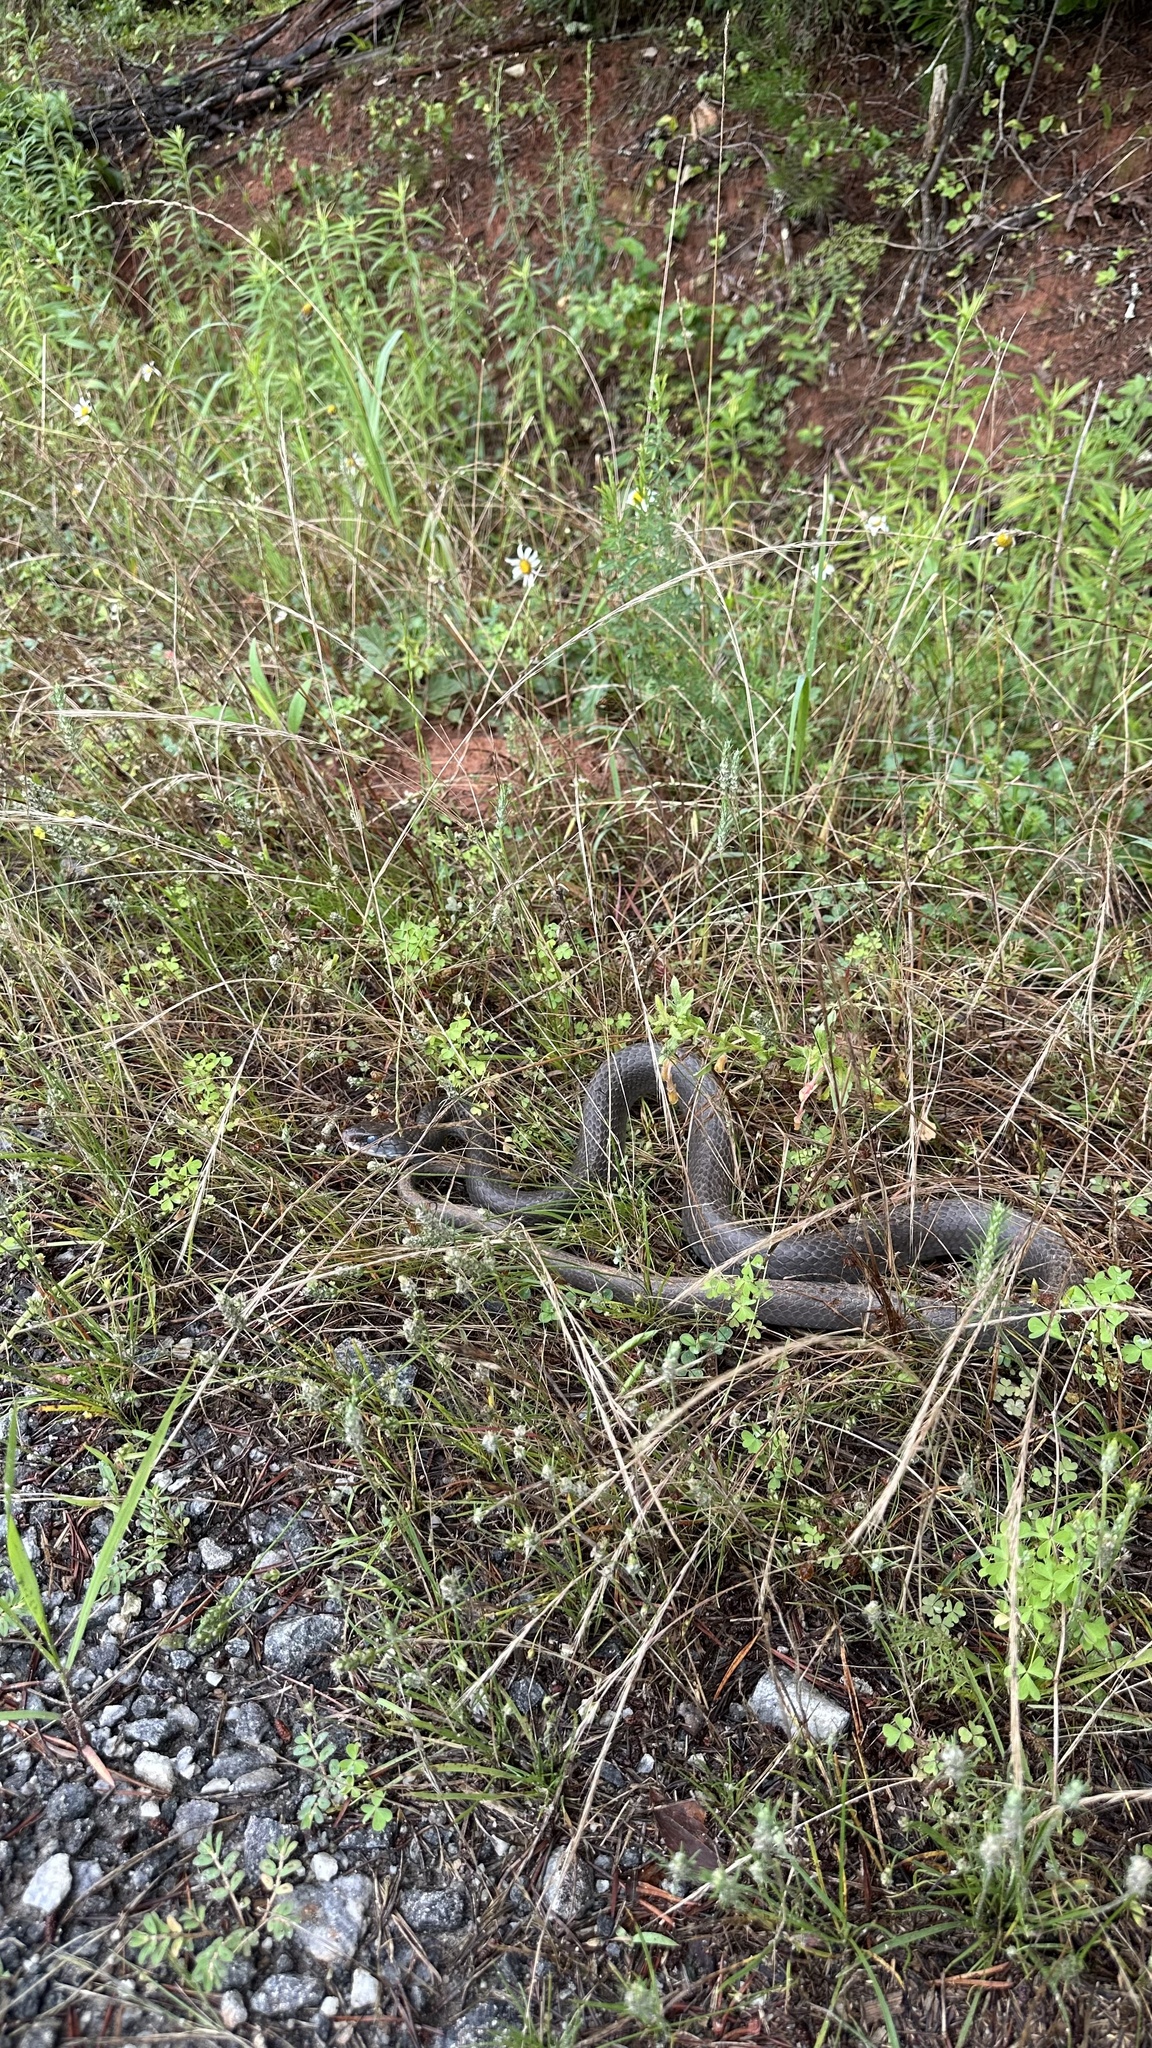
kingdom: Animalia
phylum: Chordata
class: Squamata
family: Colubridae
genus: Coluber
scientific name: Coluber constrictor
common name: Eastern racer
